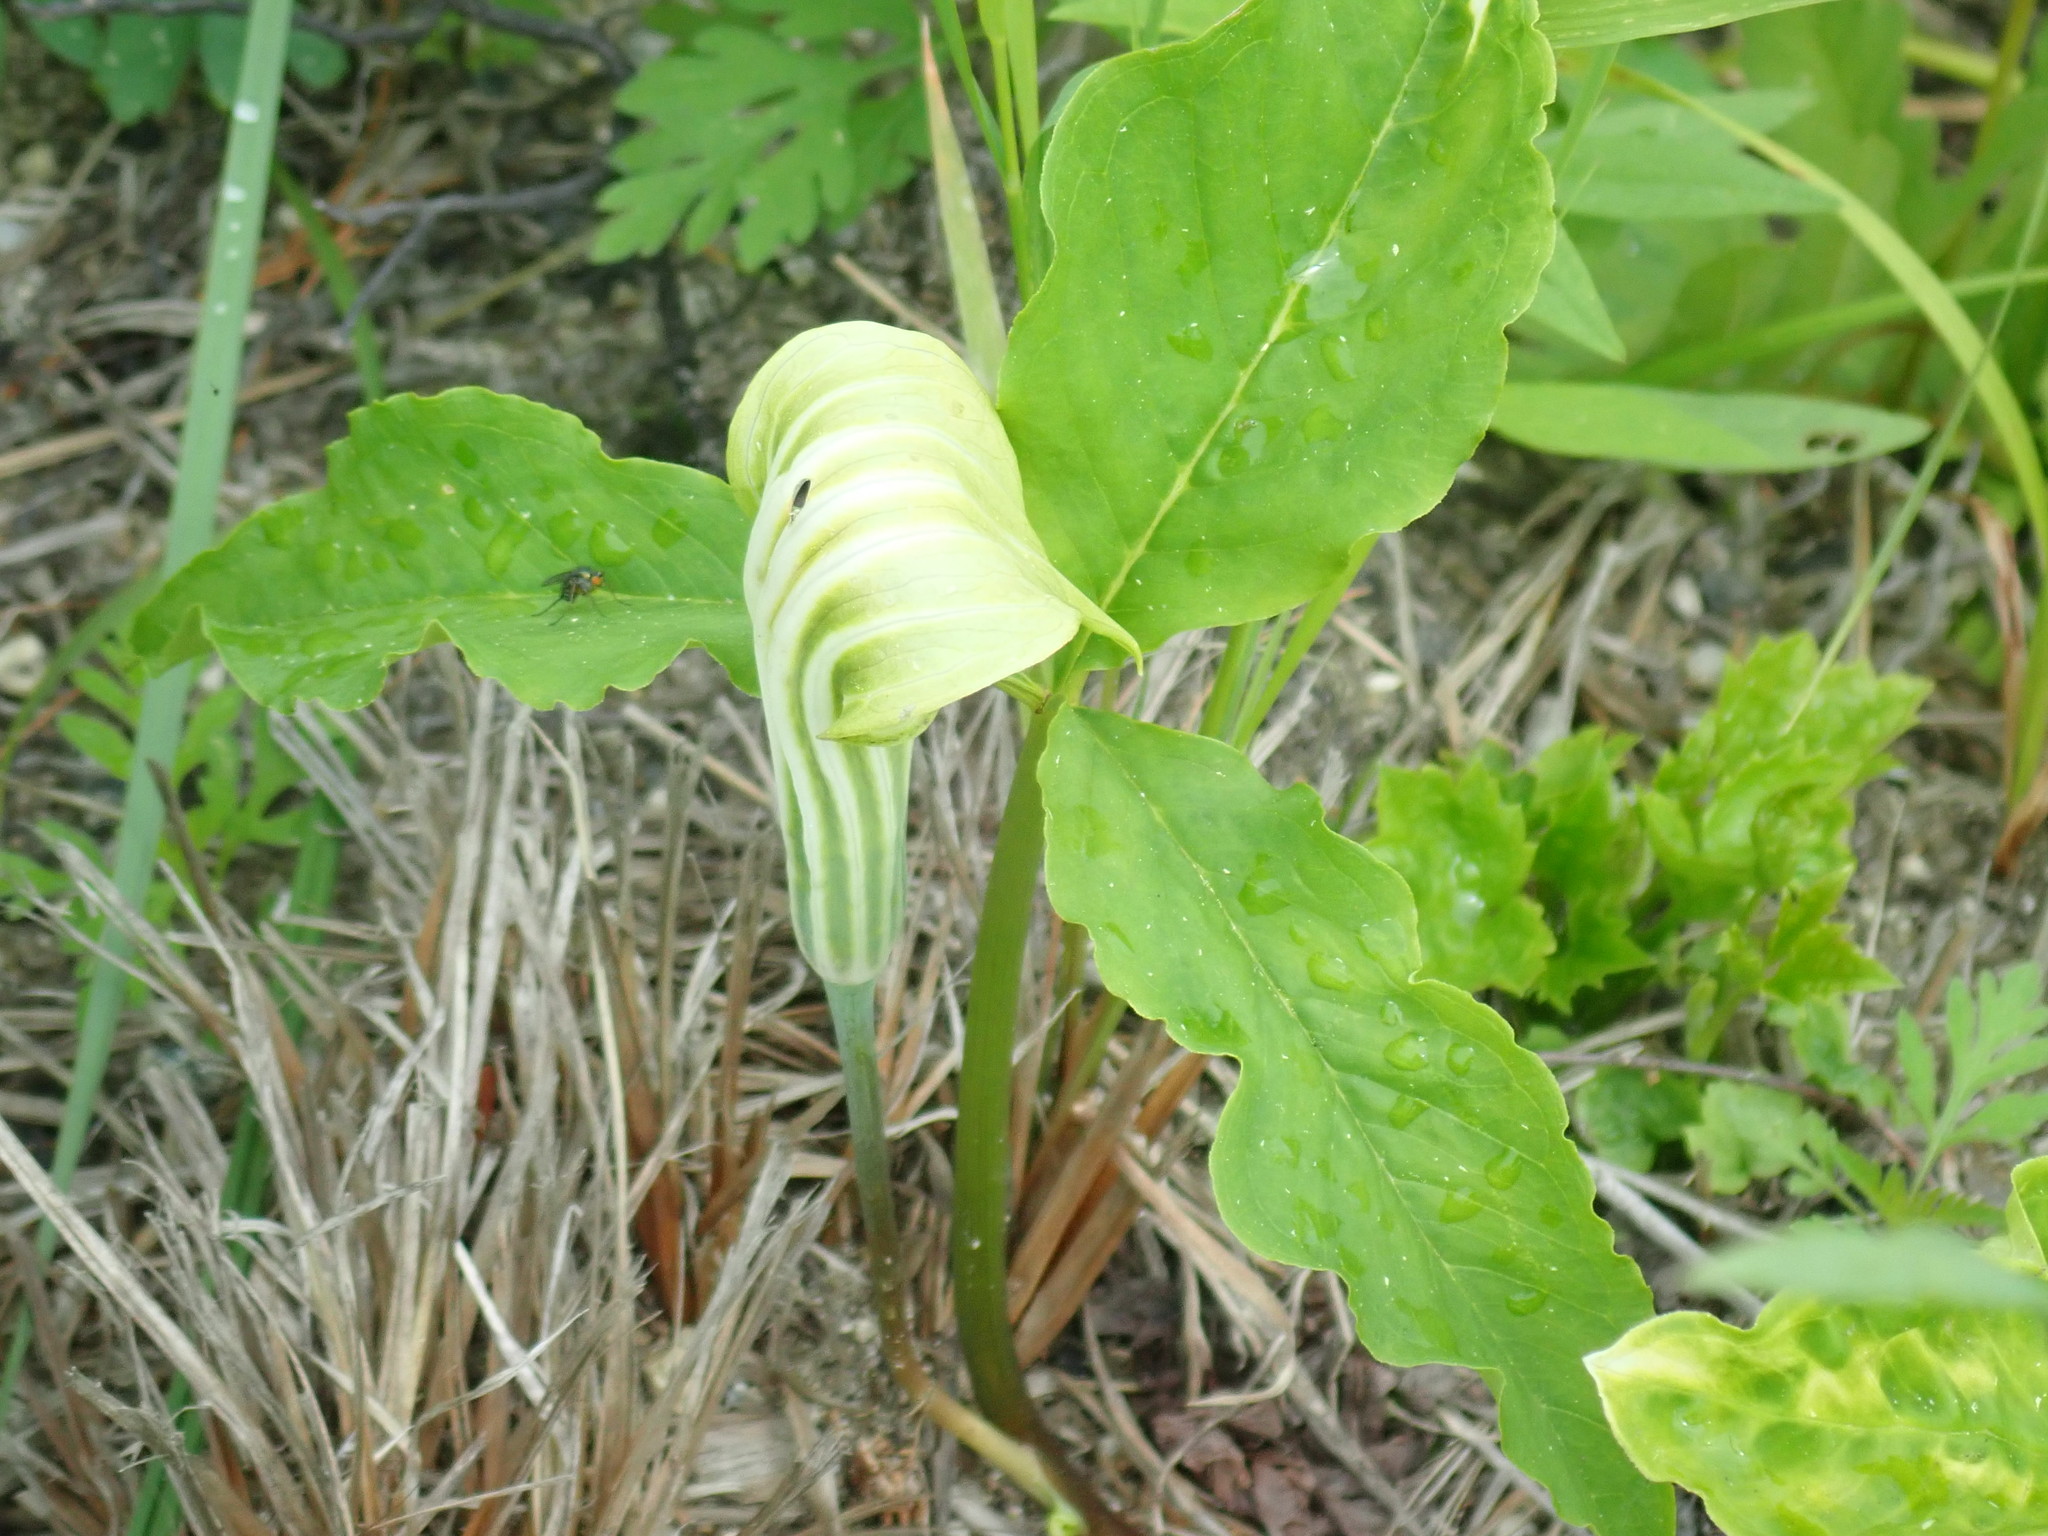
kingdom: Plantae
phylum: Tracheophyta
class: Liliopsida
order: Alismatales
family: Araceae
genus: Arisaema
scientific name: Arisaema triphyllum
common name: Jack-in-the-pulpit
